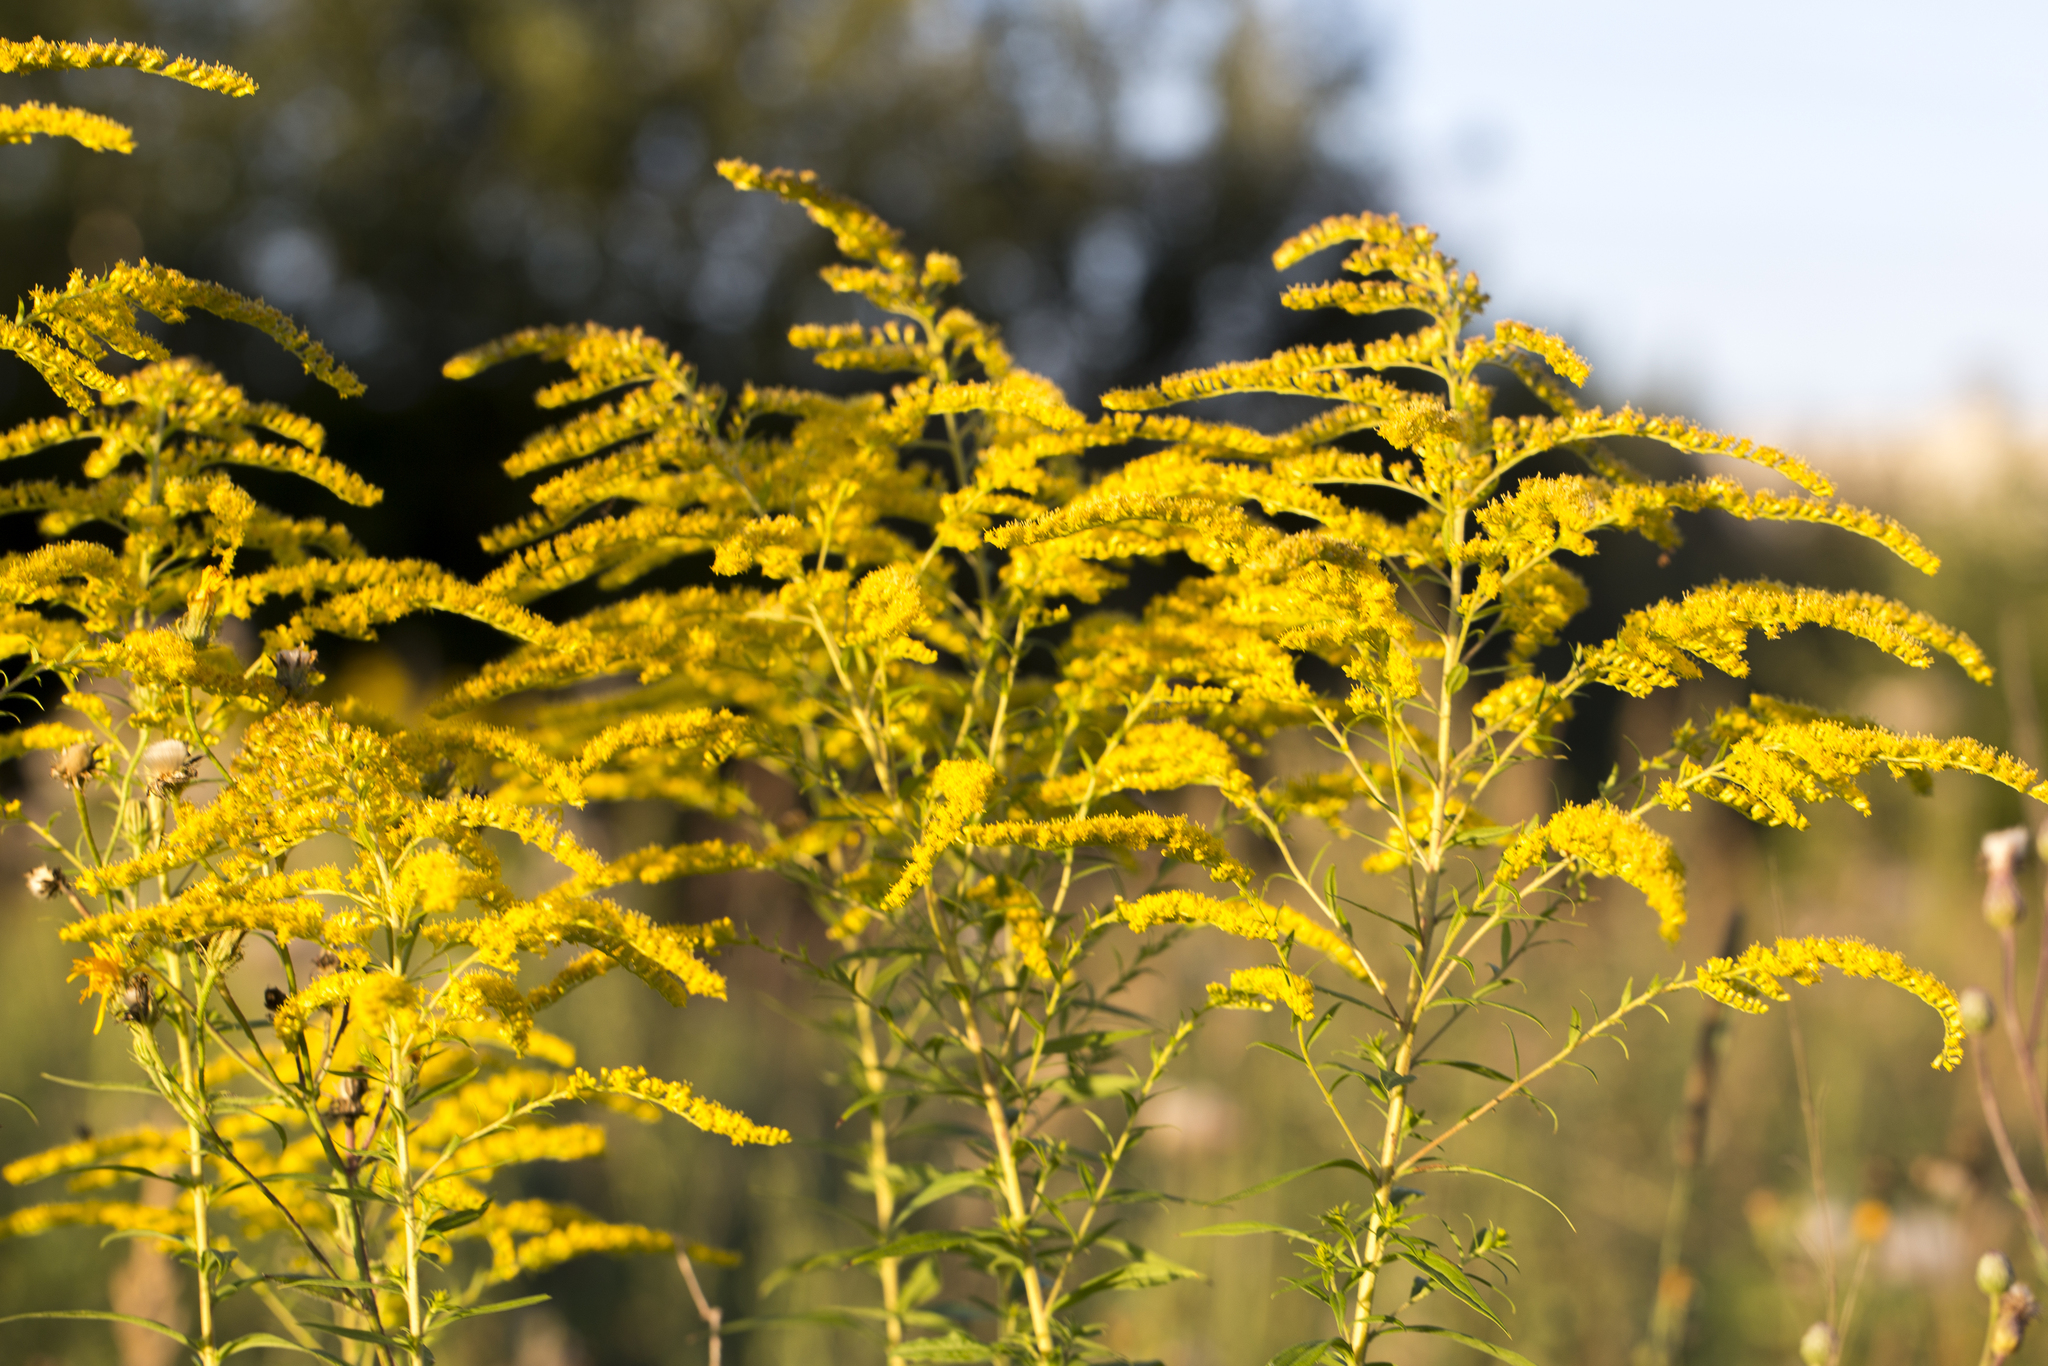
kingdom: Plantae
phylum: Tracheophyta
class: Magnoliopsida
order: Asterales
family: Asteraceae
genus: Solidago
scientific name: Solidago canadensis
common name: Canada goldenrod
